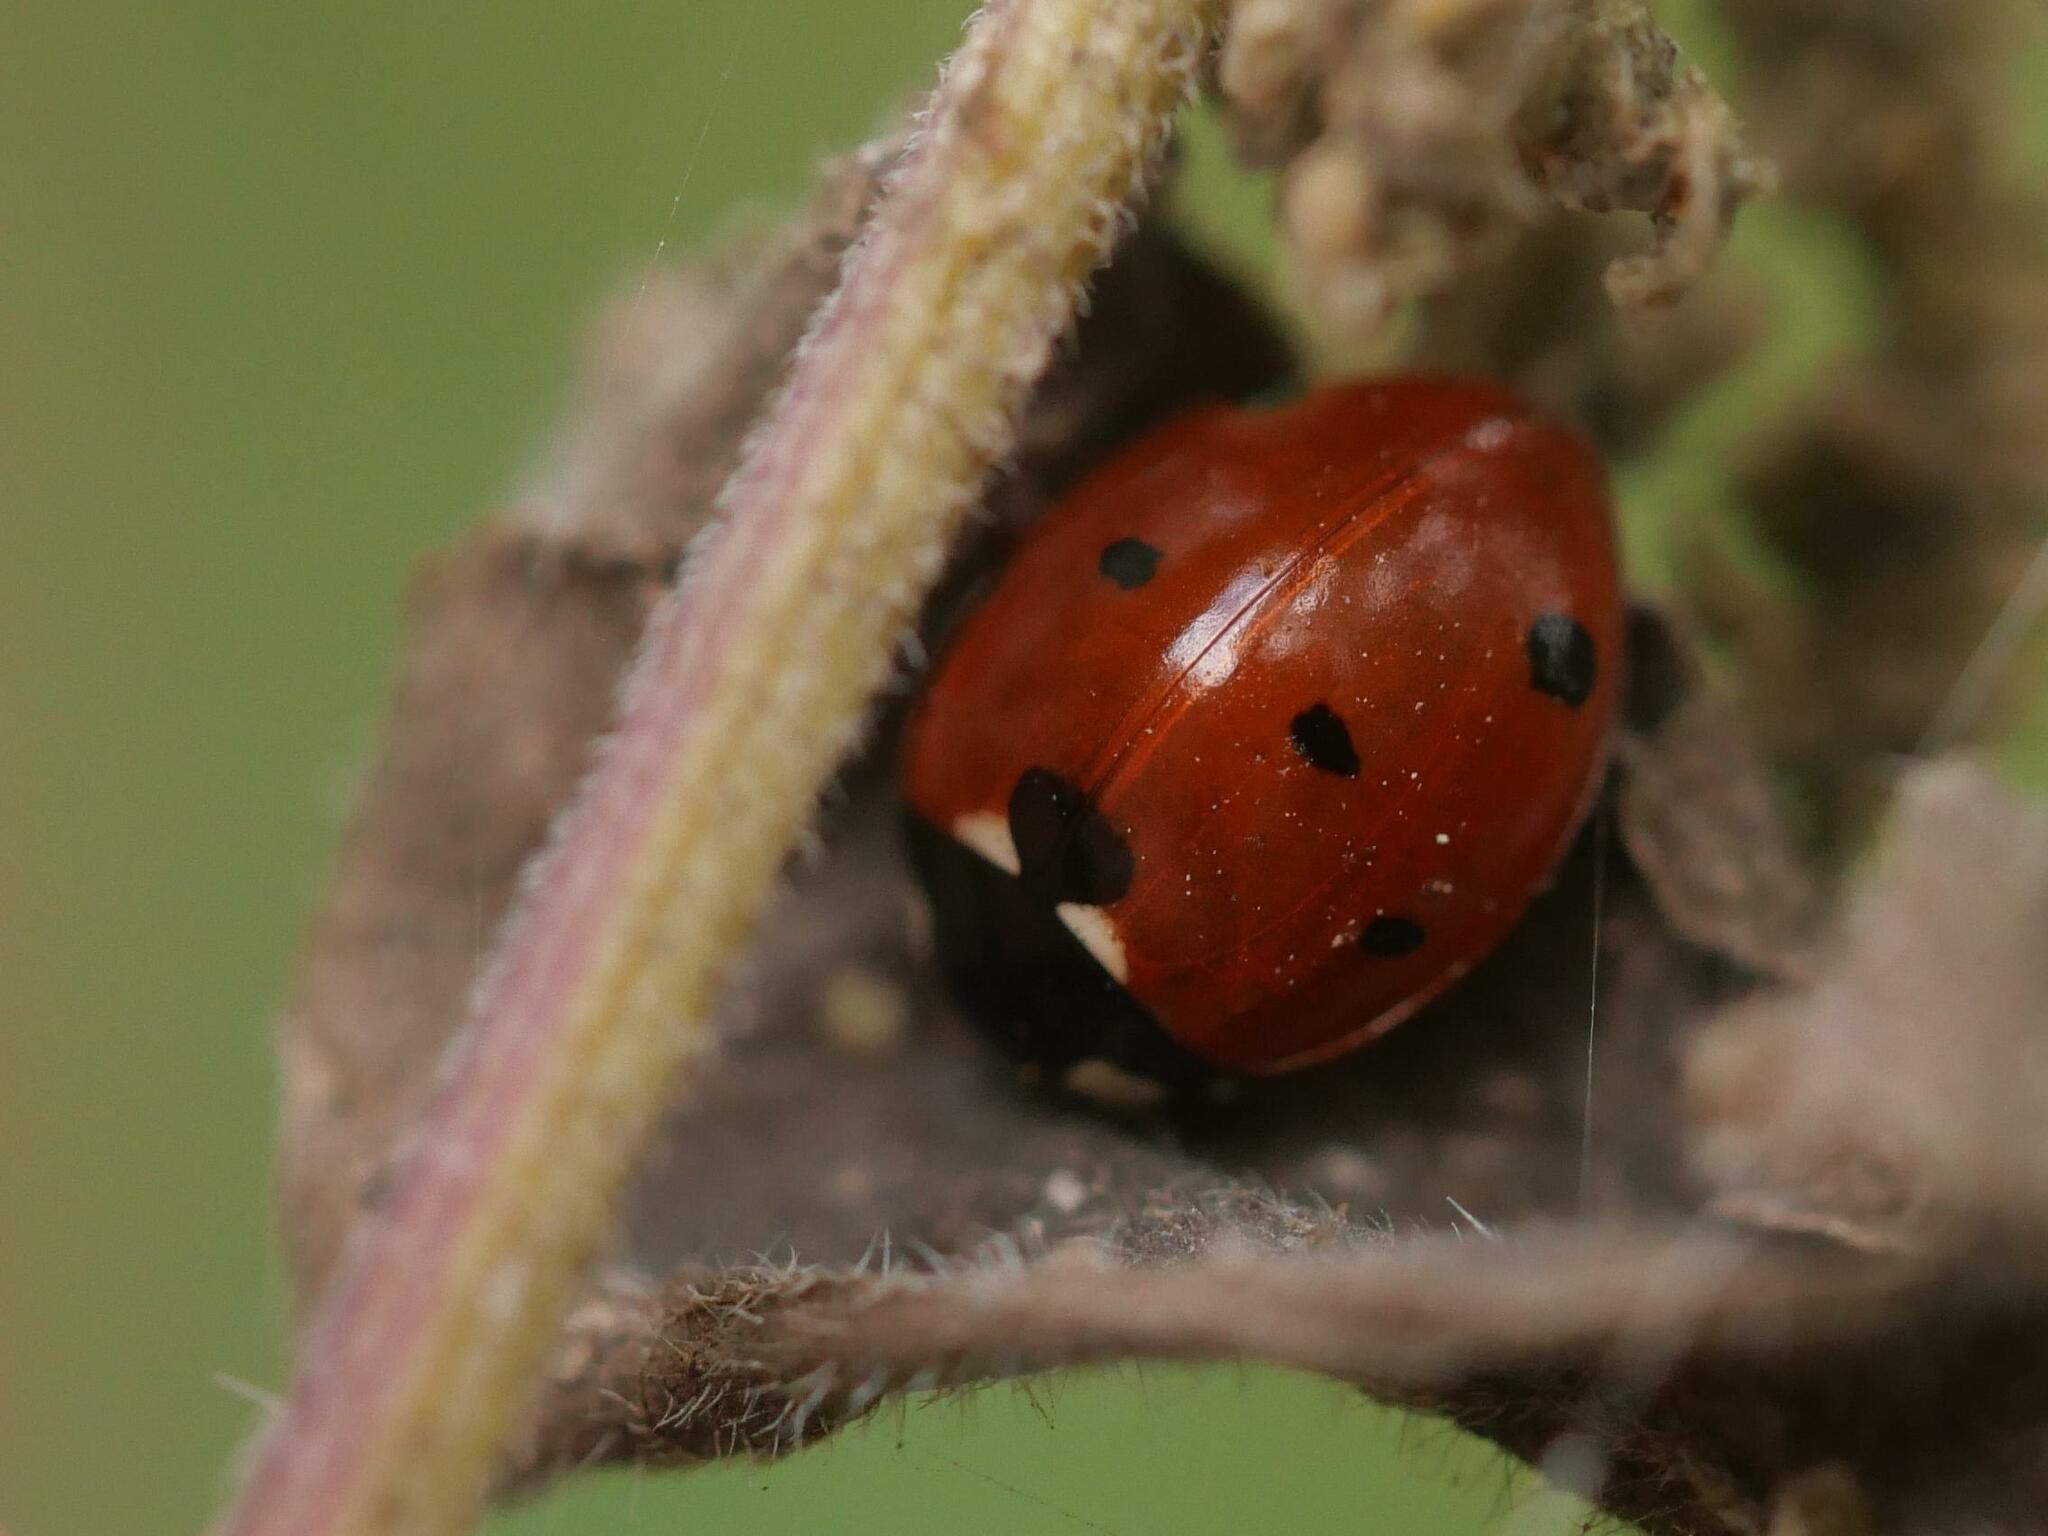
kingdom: Animalia
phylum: Arthropoda
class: Insecta
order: Coleoptera
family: Coccinellidae
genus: Coccinella
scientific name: Coccinella septempunctata
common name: Sevenspotted lady beetle
